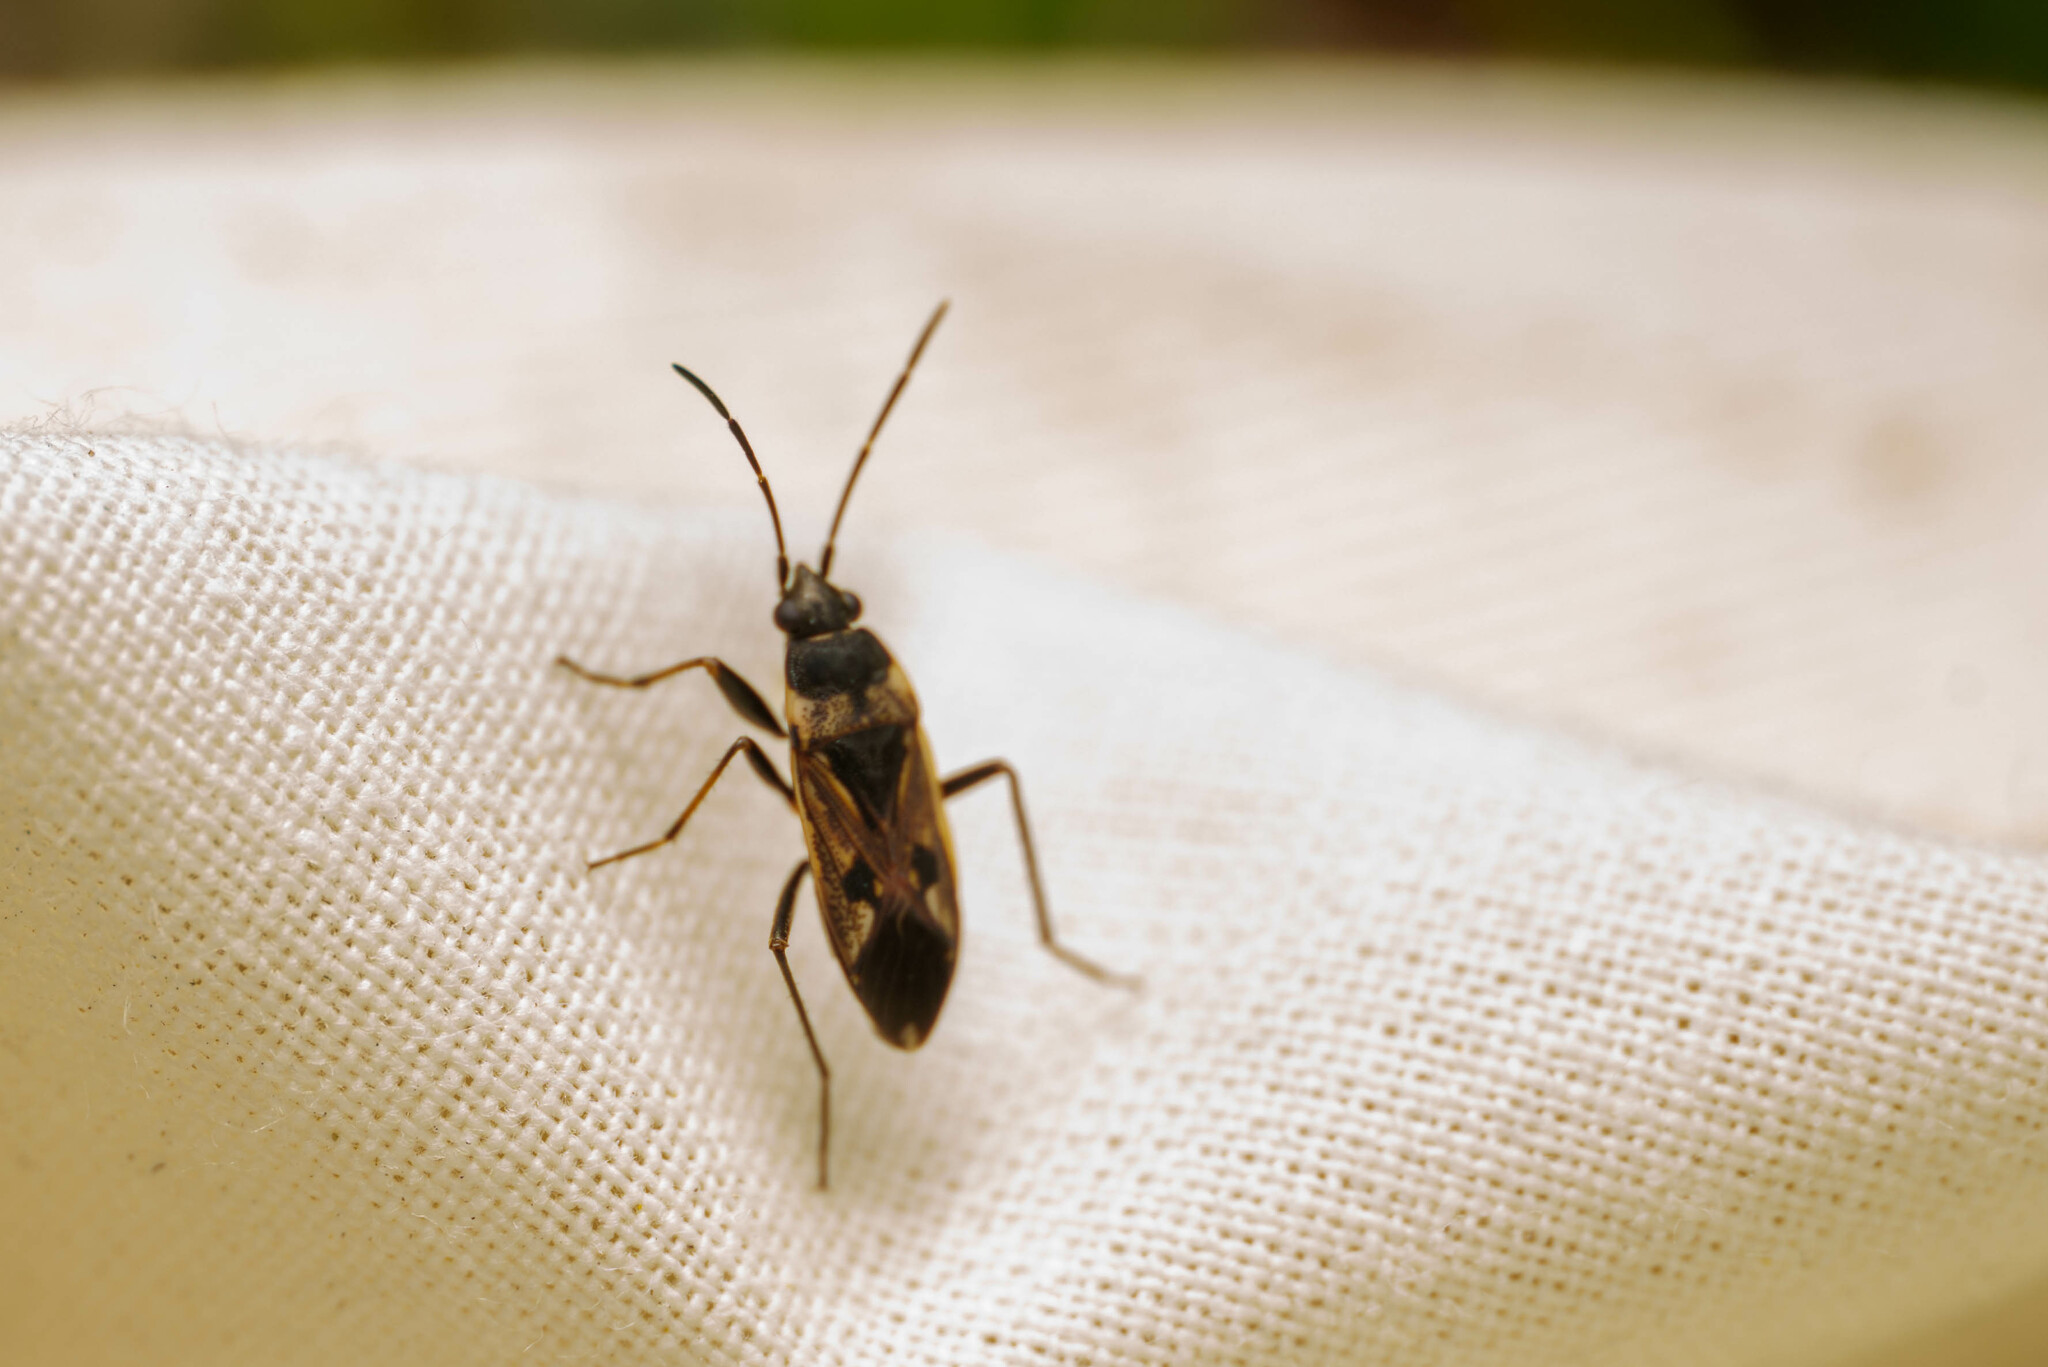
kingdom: Animalia
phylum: Arthropoda
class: Insecta
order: Hemiptera
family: Rhyparochromidae
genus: Rhyparochromus
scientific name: Rhyparochromus vulgaris
